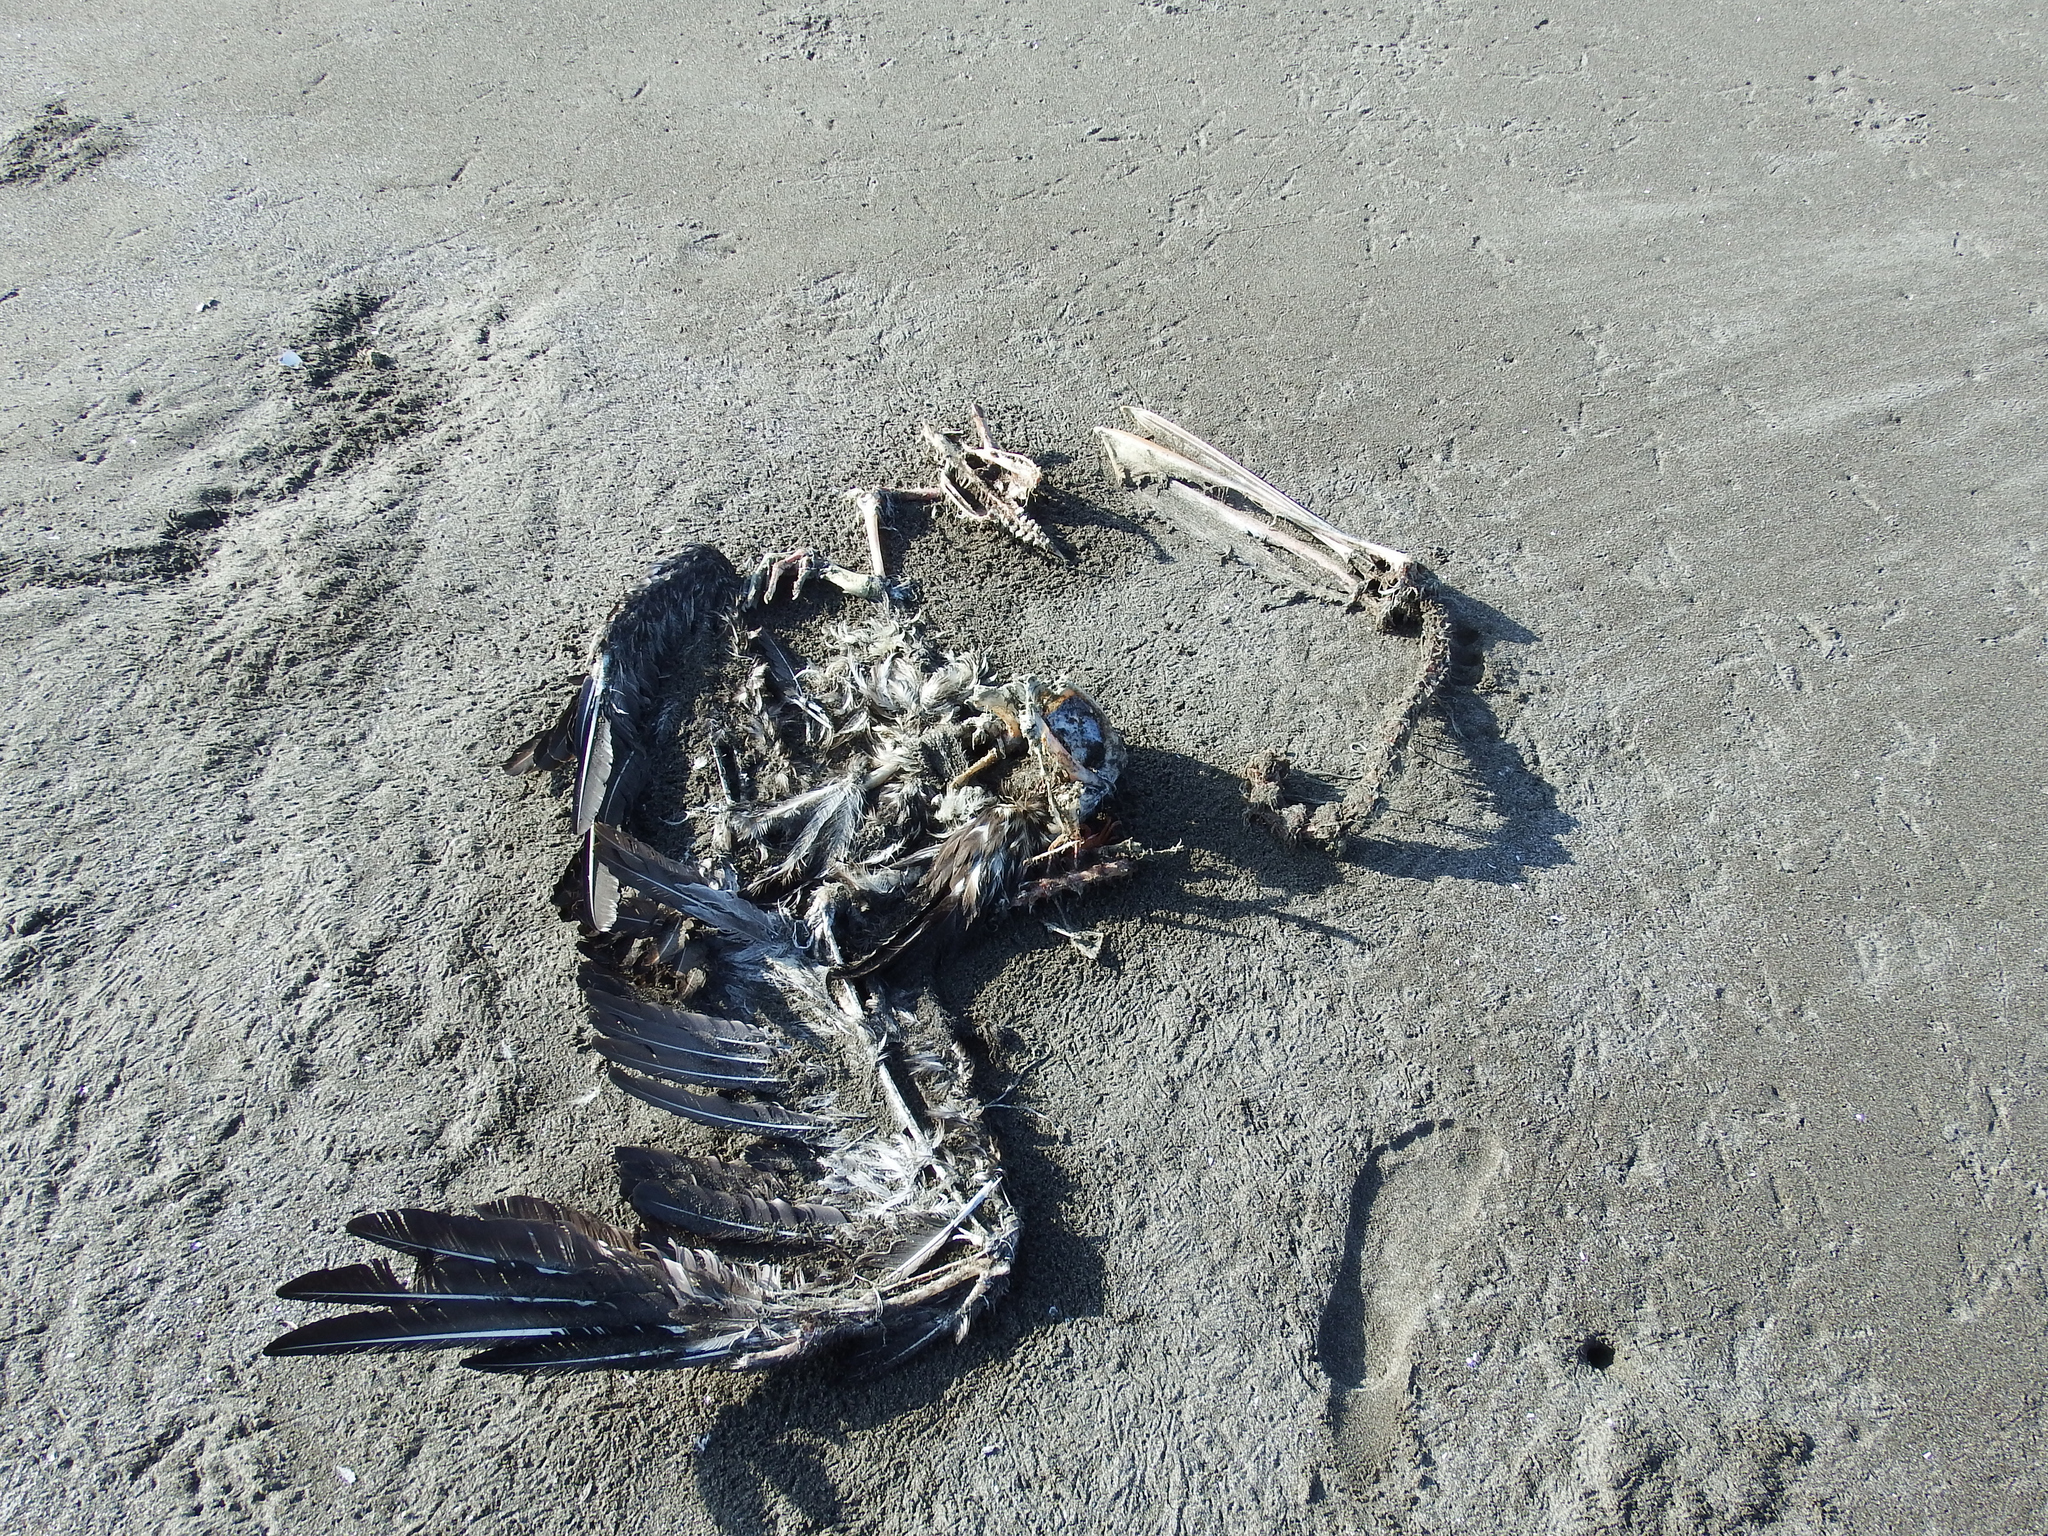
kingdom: Animalia
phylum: Chordata
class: Aves
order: Pelecaniformes
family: Pelecanidae
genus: Pelecanus
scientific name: Pelecanus thagus
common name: Peruvian pelican
